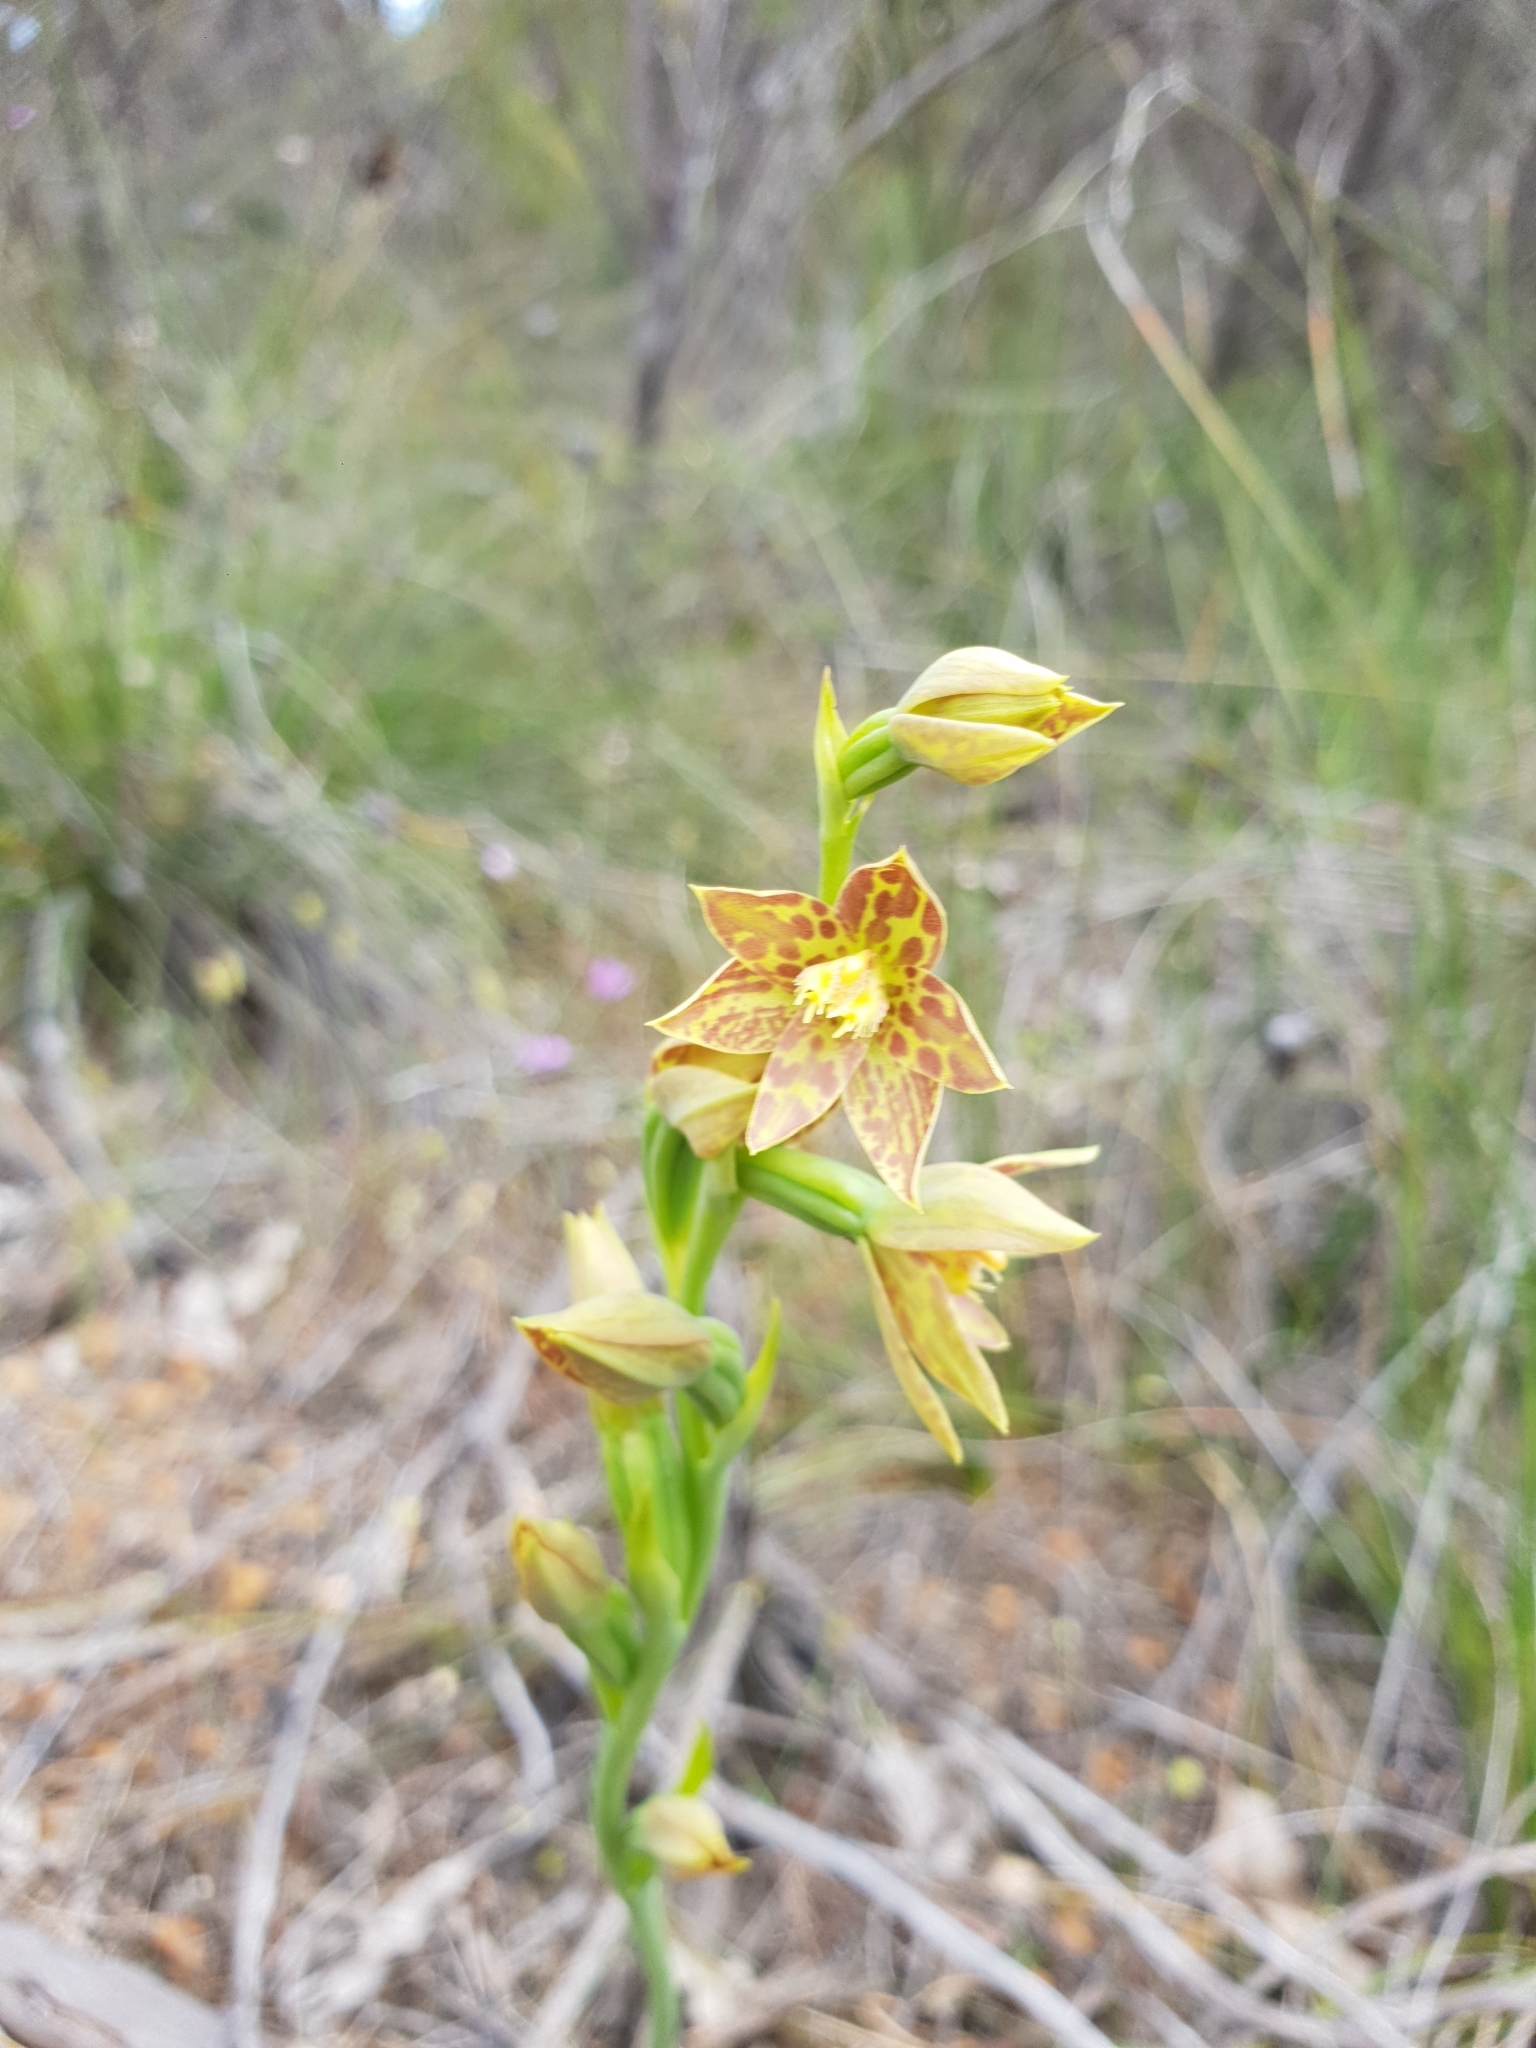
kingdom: Plantae
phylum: Tracheophyta
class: Liliopsida
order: Asparagales
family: Orchidaceae
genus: Thelymitra
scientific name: Thelymitra benthamiana
